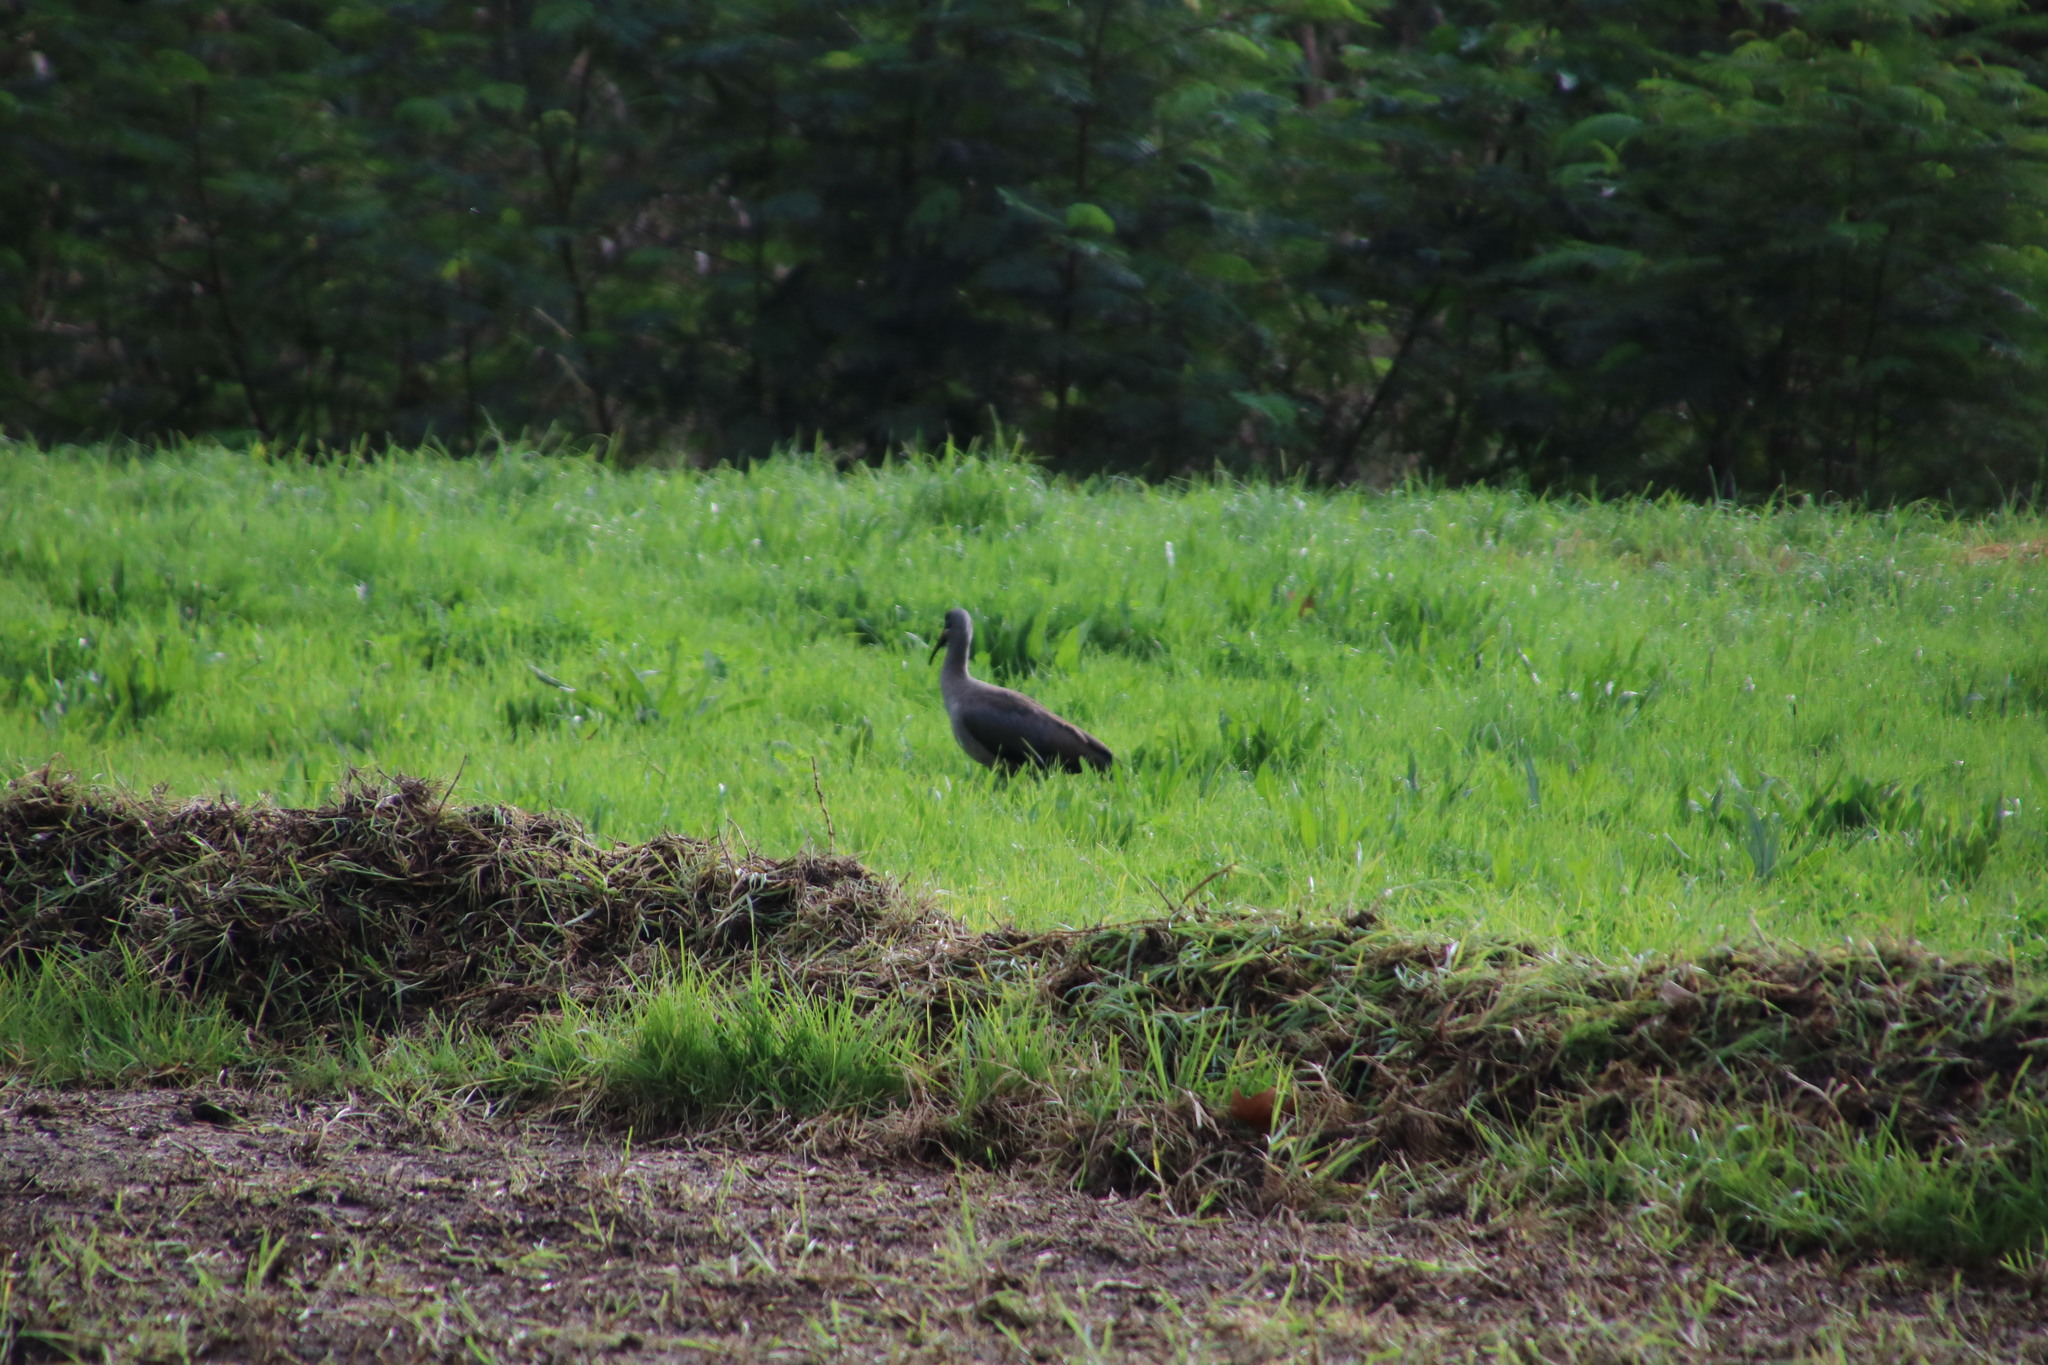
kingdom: Animalia
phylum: Chordata
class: Aves
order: Pelecaniformes
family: Threskiornithidae
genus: Bostrychia
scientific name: Bostrychia hagedash
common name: Hadada ibis
